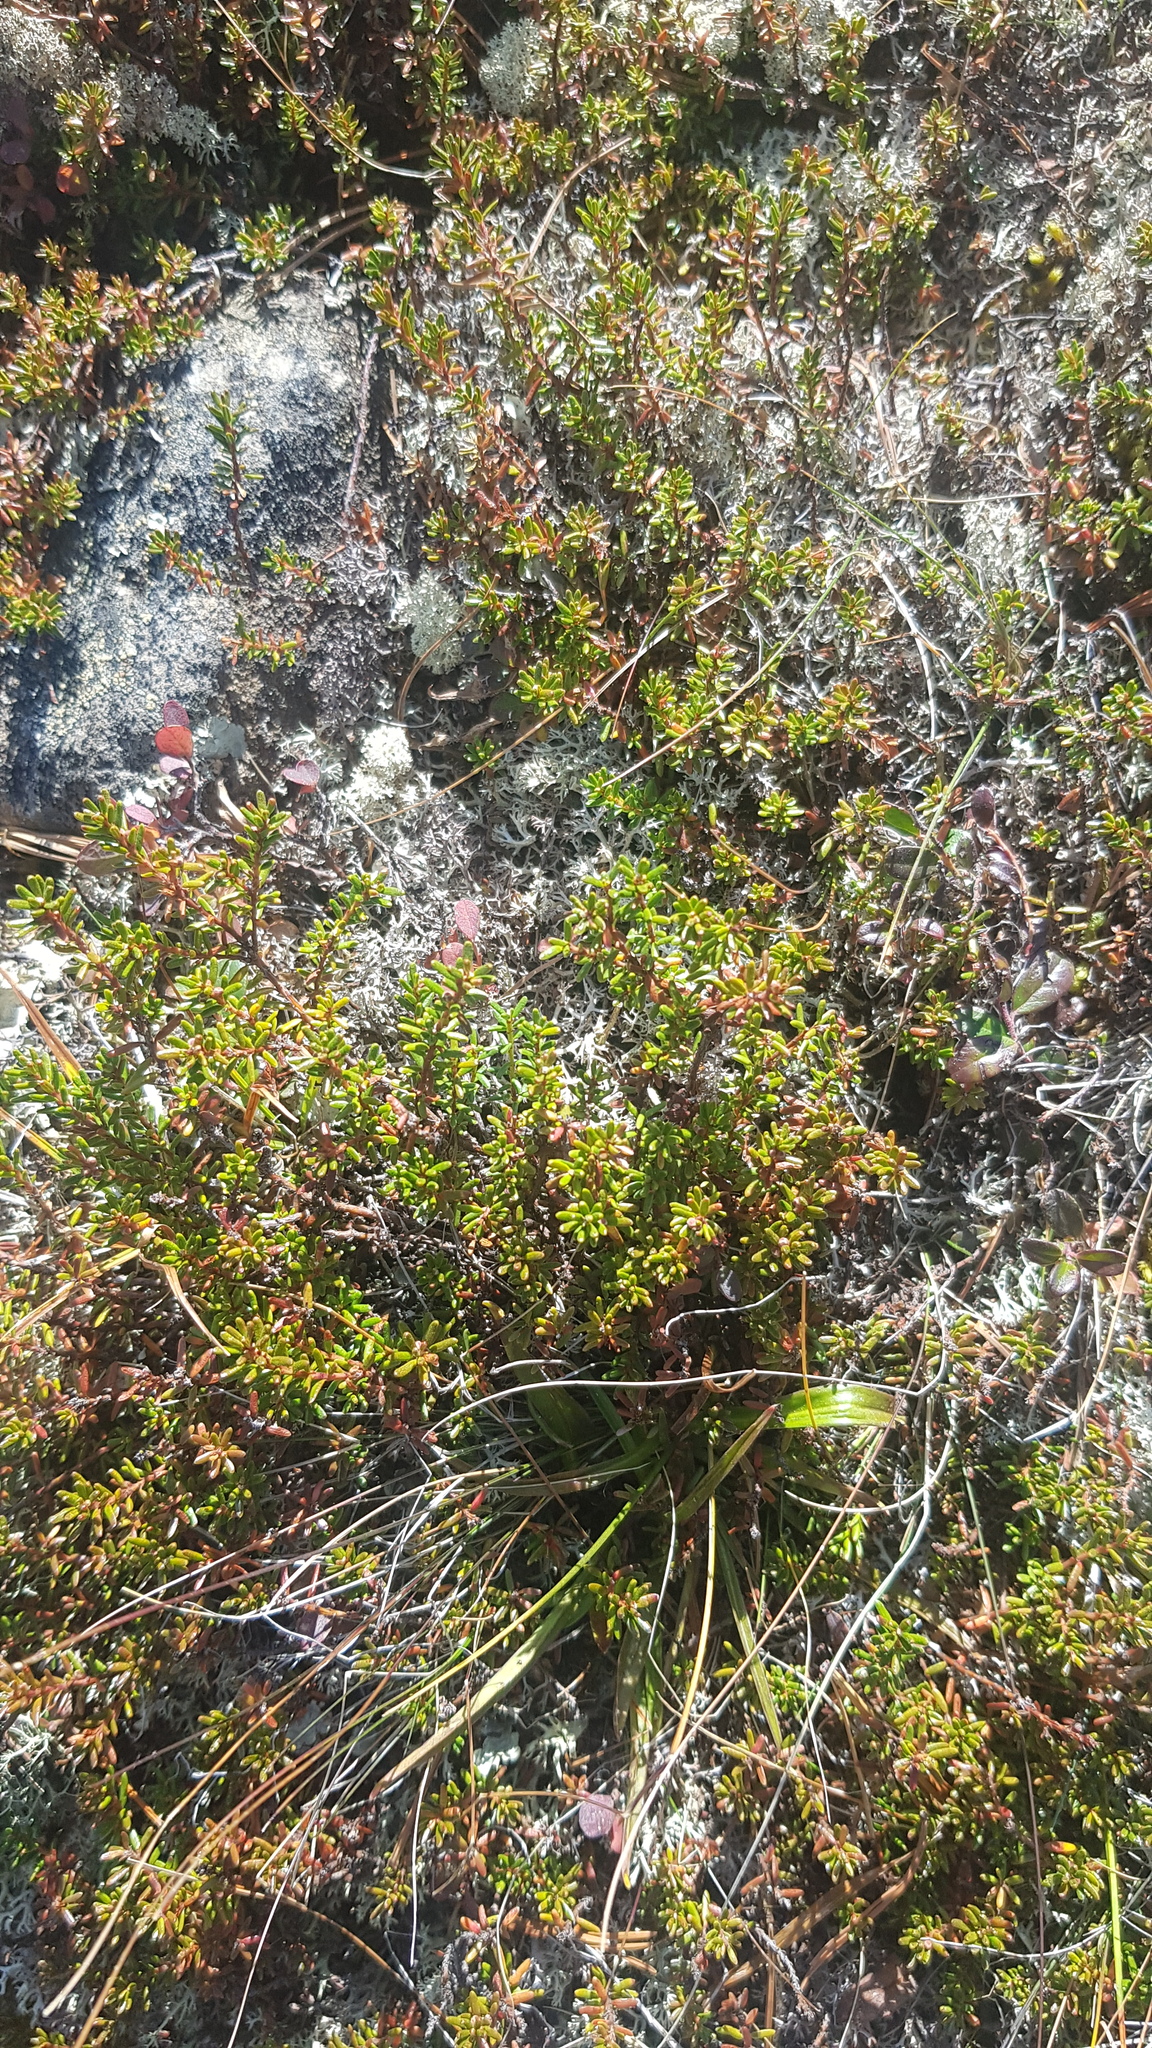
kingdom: Plantae
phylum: Tracheophyta
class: Magnoliopsida
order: Ericales
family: Ericaceae
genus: Empetrum
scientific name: Empetrum nigrum
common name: Black crowberry
